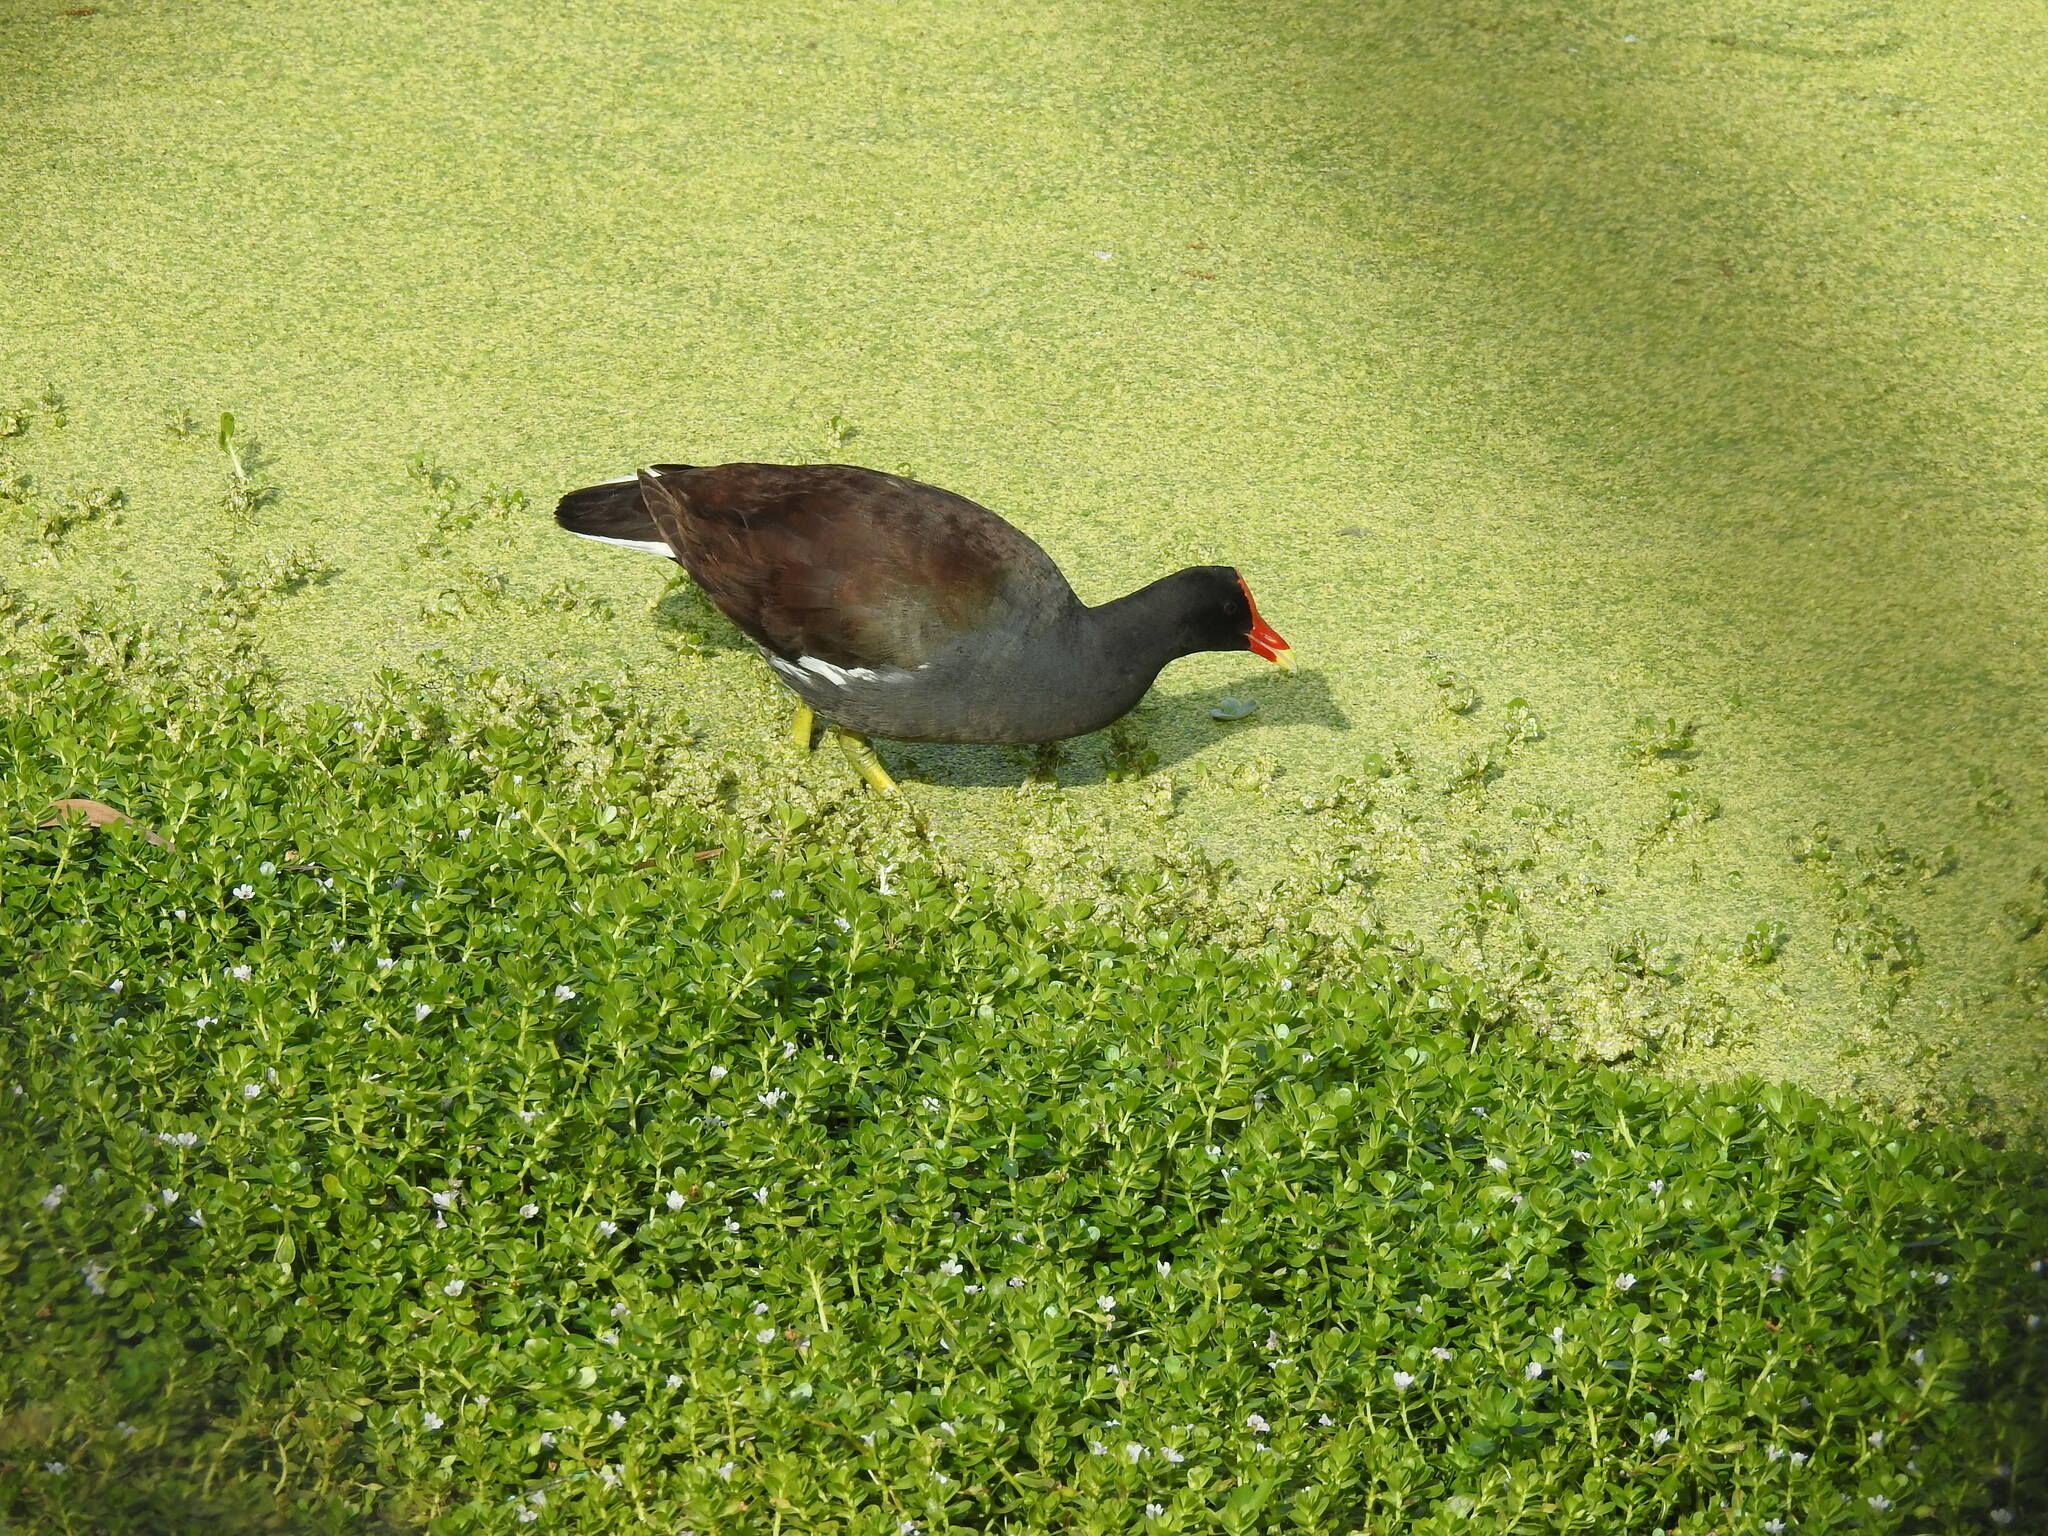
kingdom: Animalia
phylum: Chordata
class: Aves
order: Gruiformes
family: Rallidae
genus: Gallinula
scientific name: Gallinula chloropus
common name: Common moorhen
